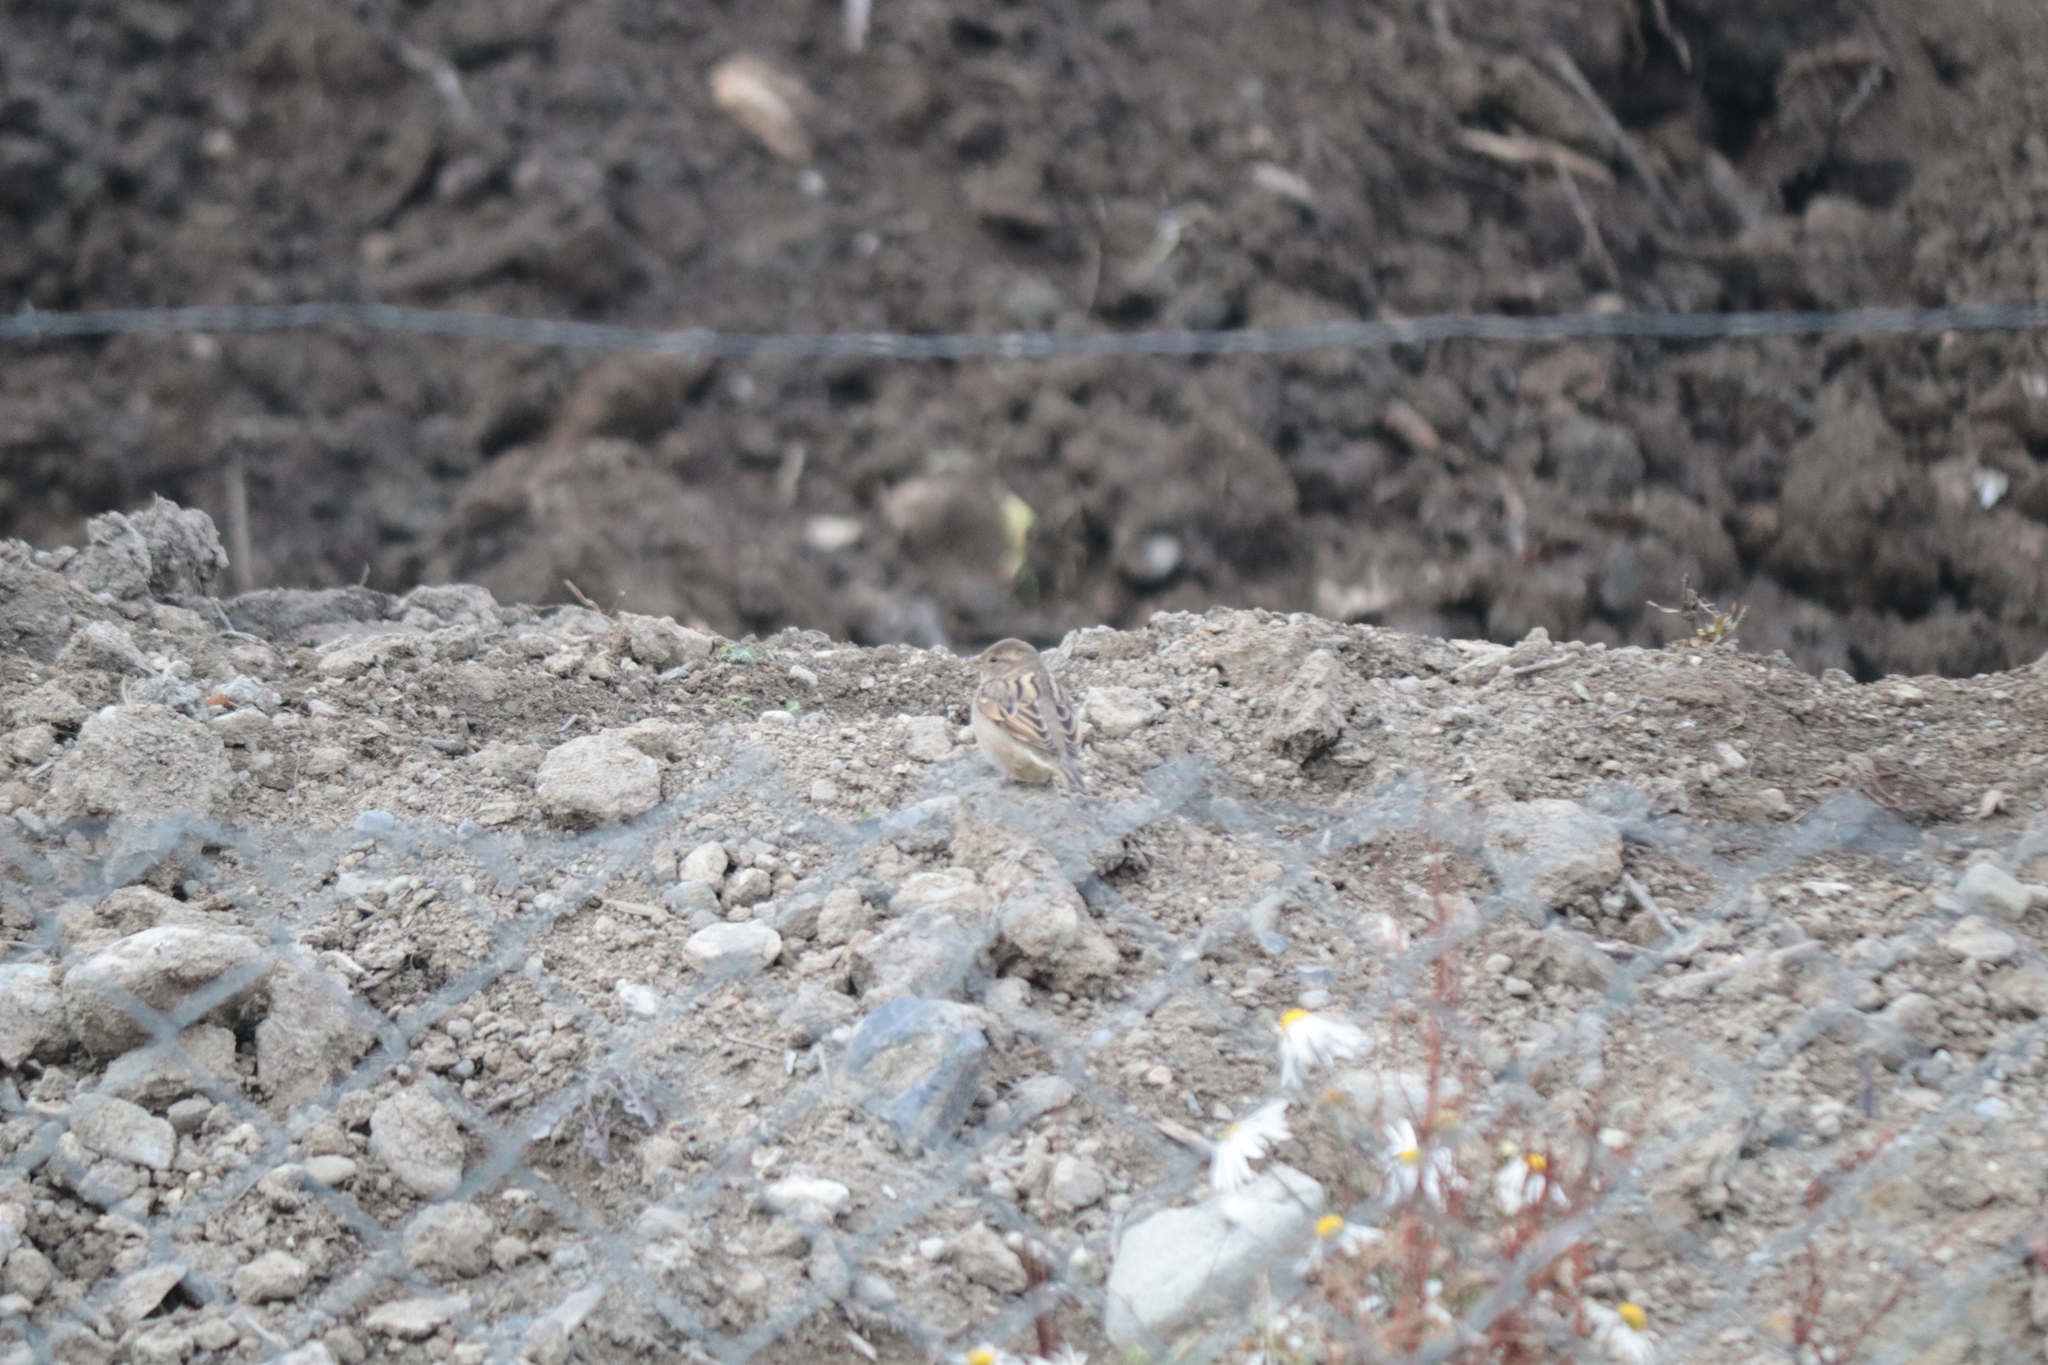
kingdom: Animalia
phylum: Chordata
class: Aves
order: Passeriformes
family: Passeridae
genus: Passer
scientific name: Passer domesticus
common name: House sparrow
